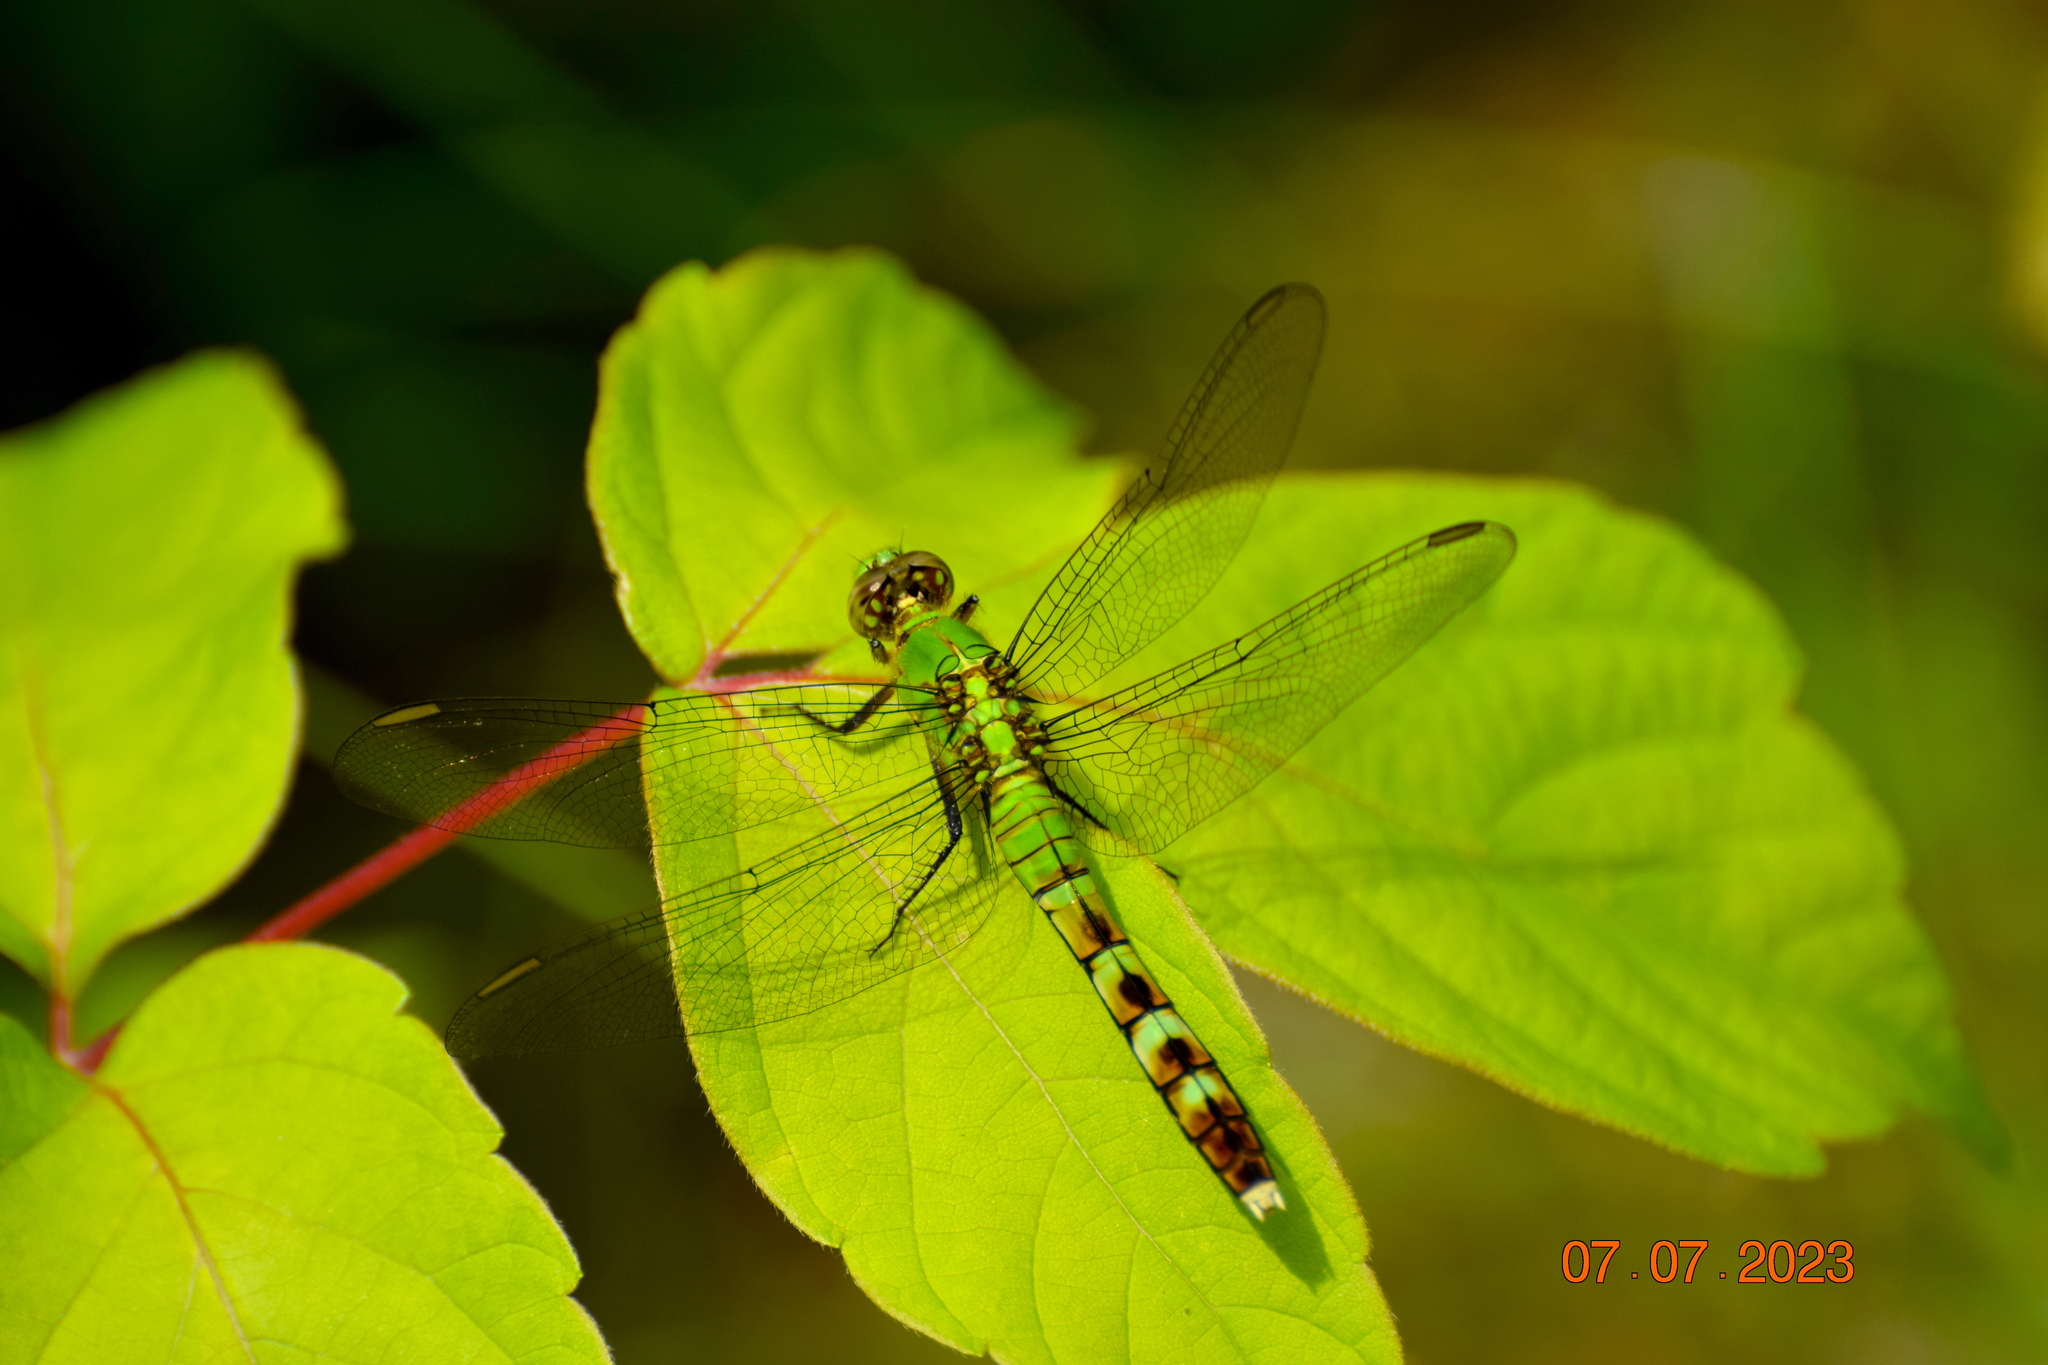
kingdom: Animalia
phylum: Arthropoda
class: Insecta
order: Odonata
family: Libellulidae
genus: Erythemis
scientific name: Erythemis simplicicollis
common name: Eastern pondhawk
